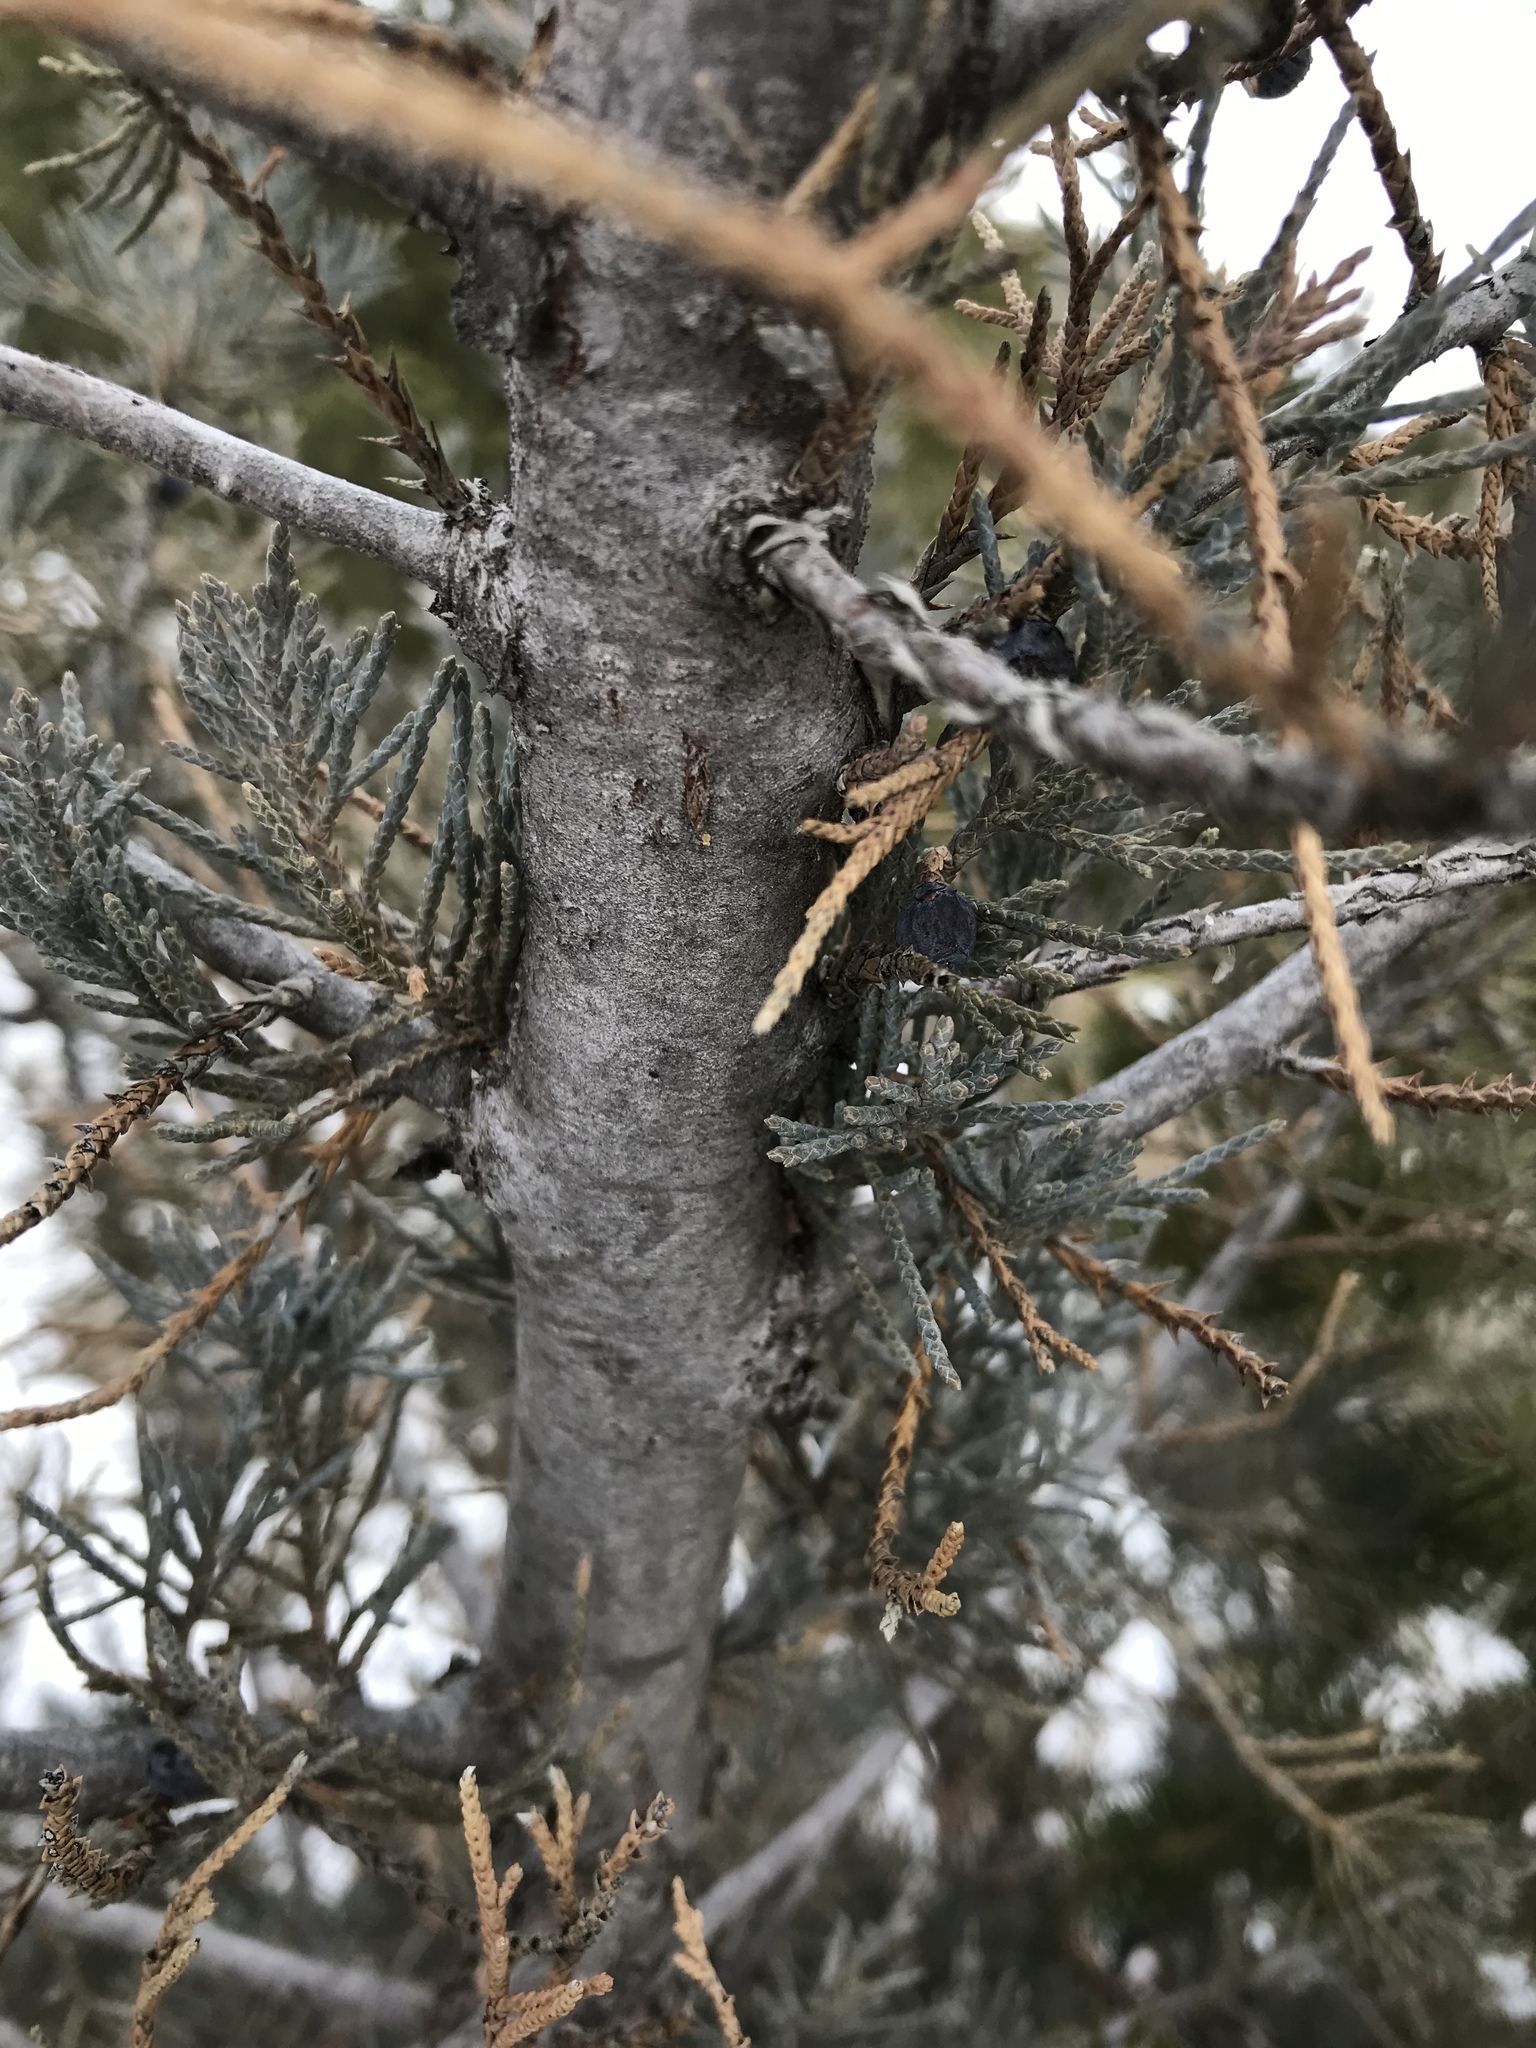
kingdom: Plantae
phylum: Tracheophyta
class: Pinopsida
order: Pinales
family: Cupressaceae
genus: Juniperus
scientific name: Juniperus scopulorum
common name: Rocky mountain juniper
